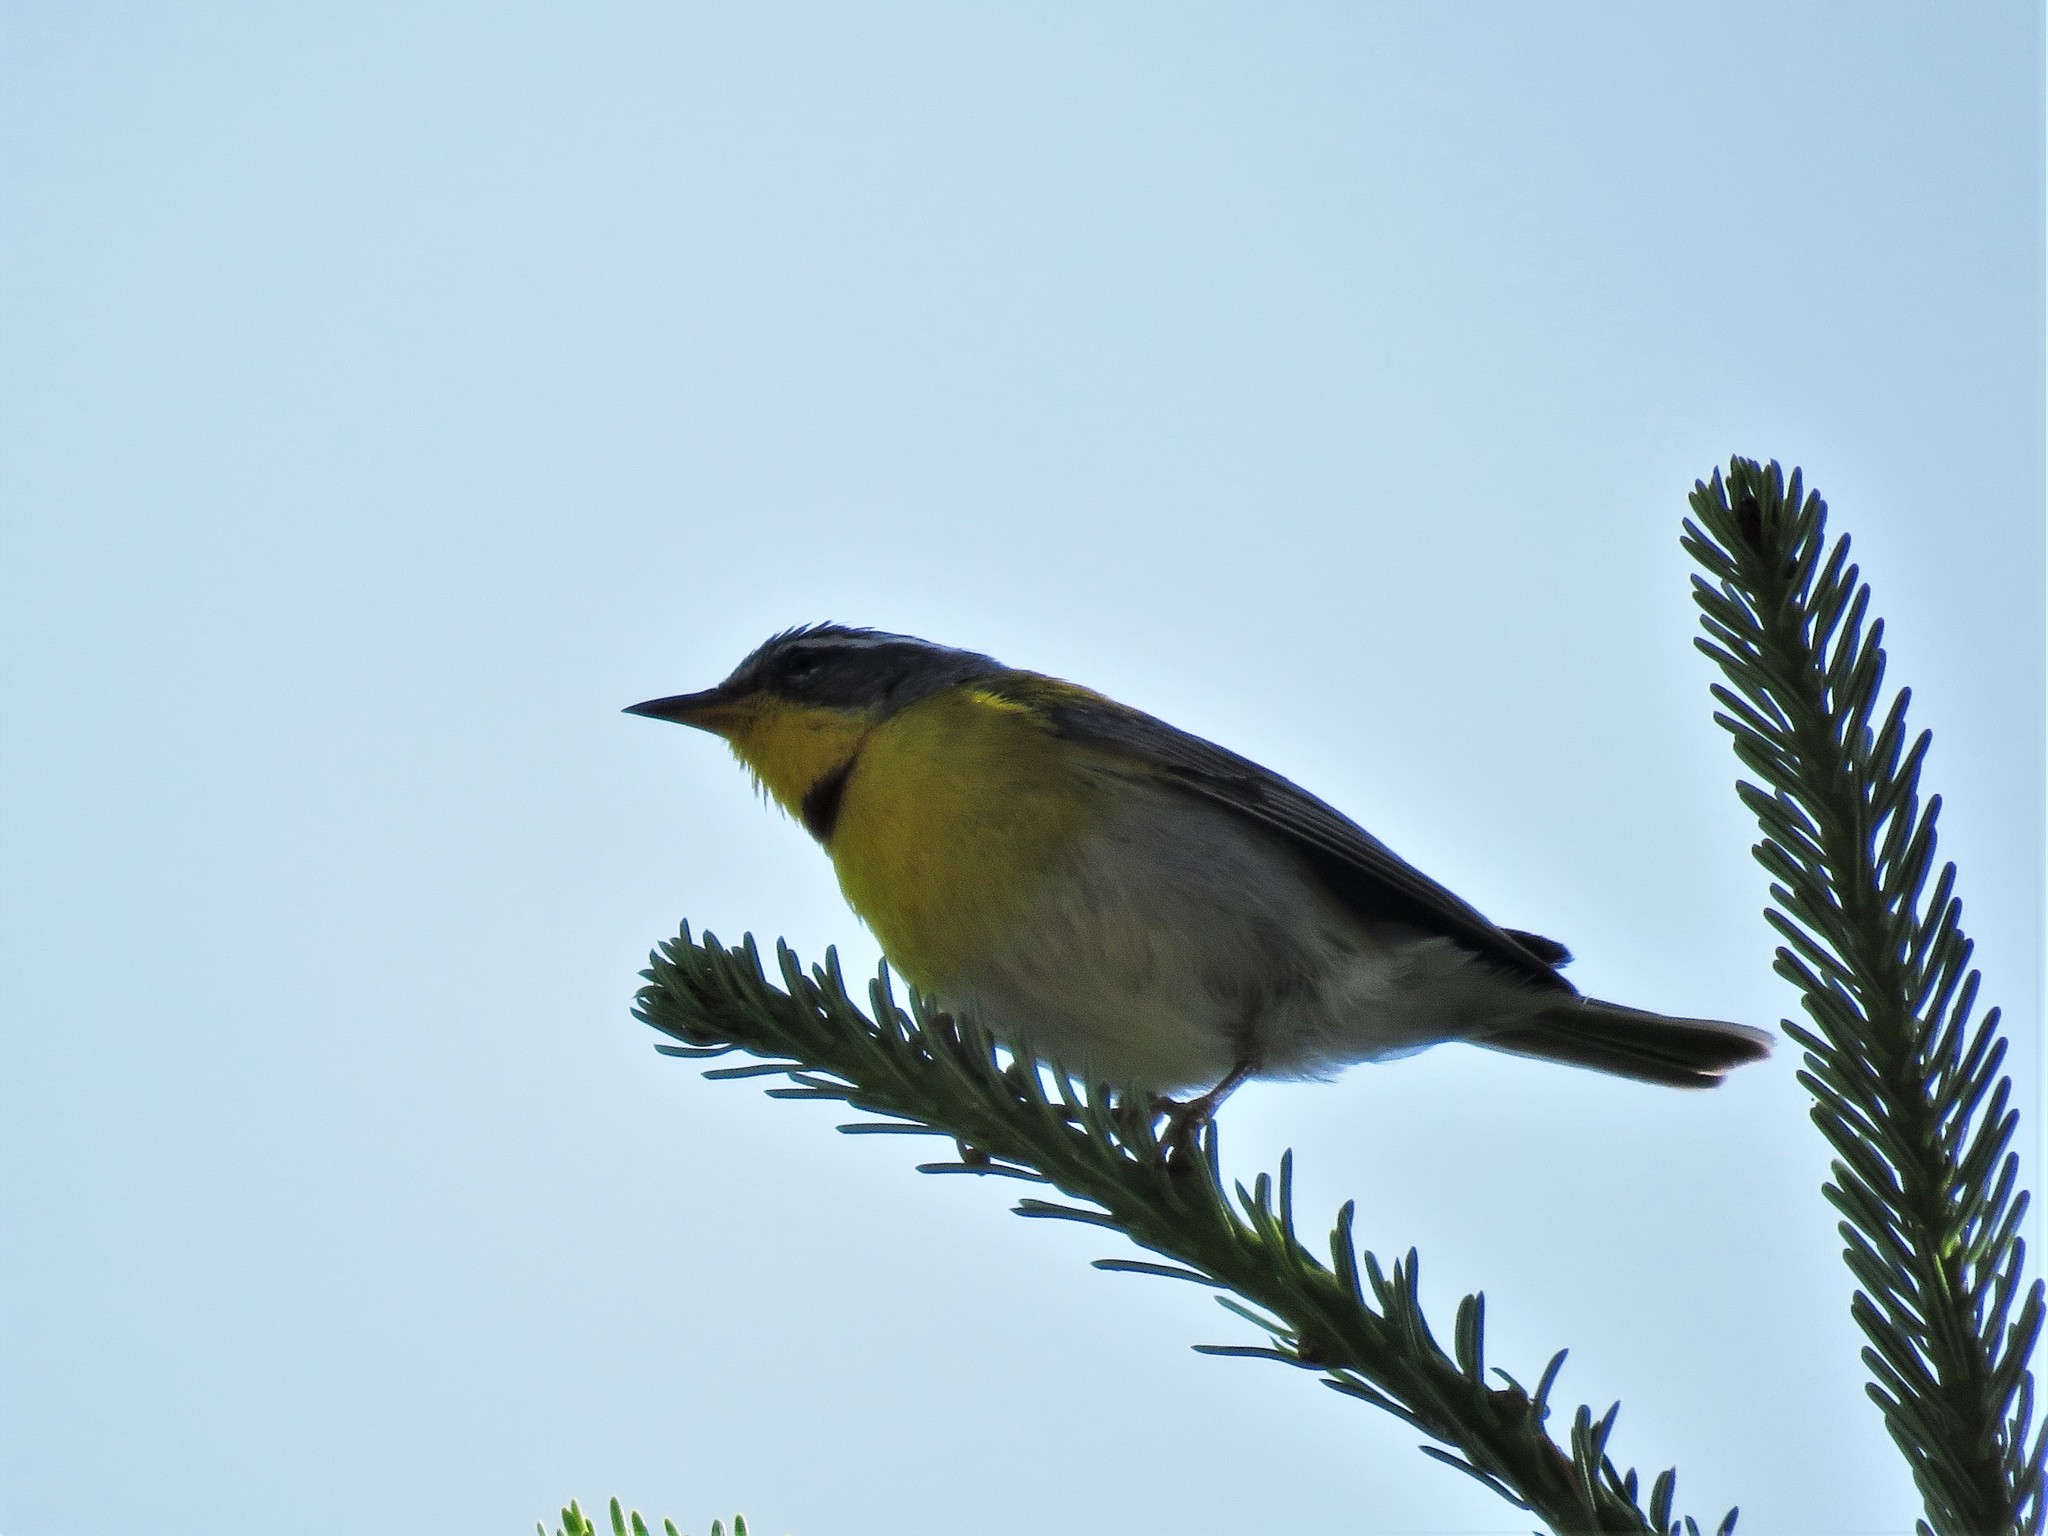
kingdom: Animalia
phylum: Chordata
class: Aves
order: Passeriformes
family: Parulidae
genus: Oreothlypis
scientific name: Oreothlypis superciliosa
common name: Crescent-chested warbler
